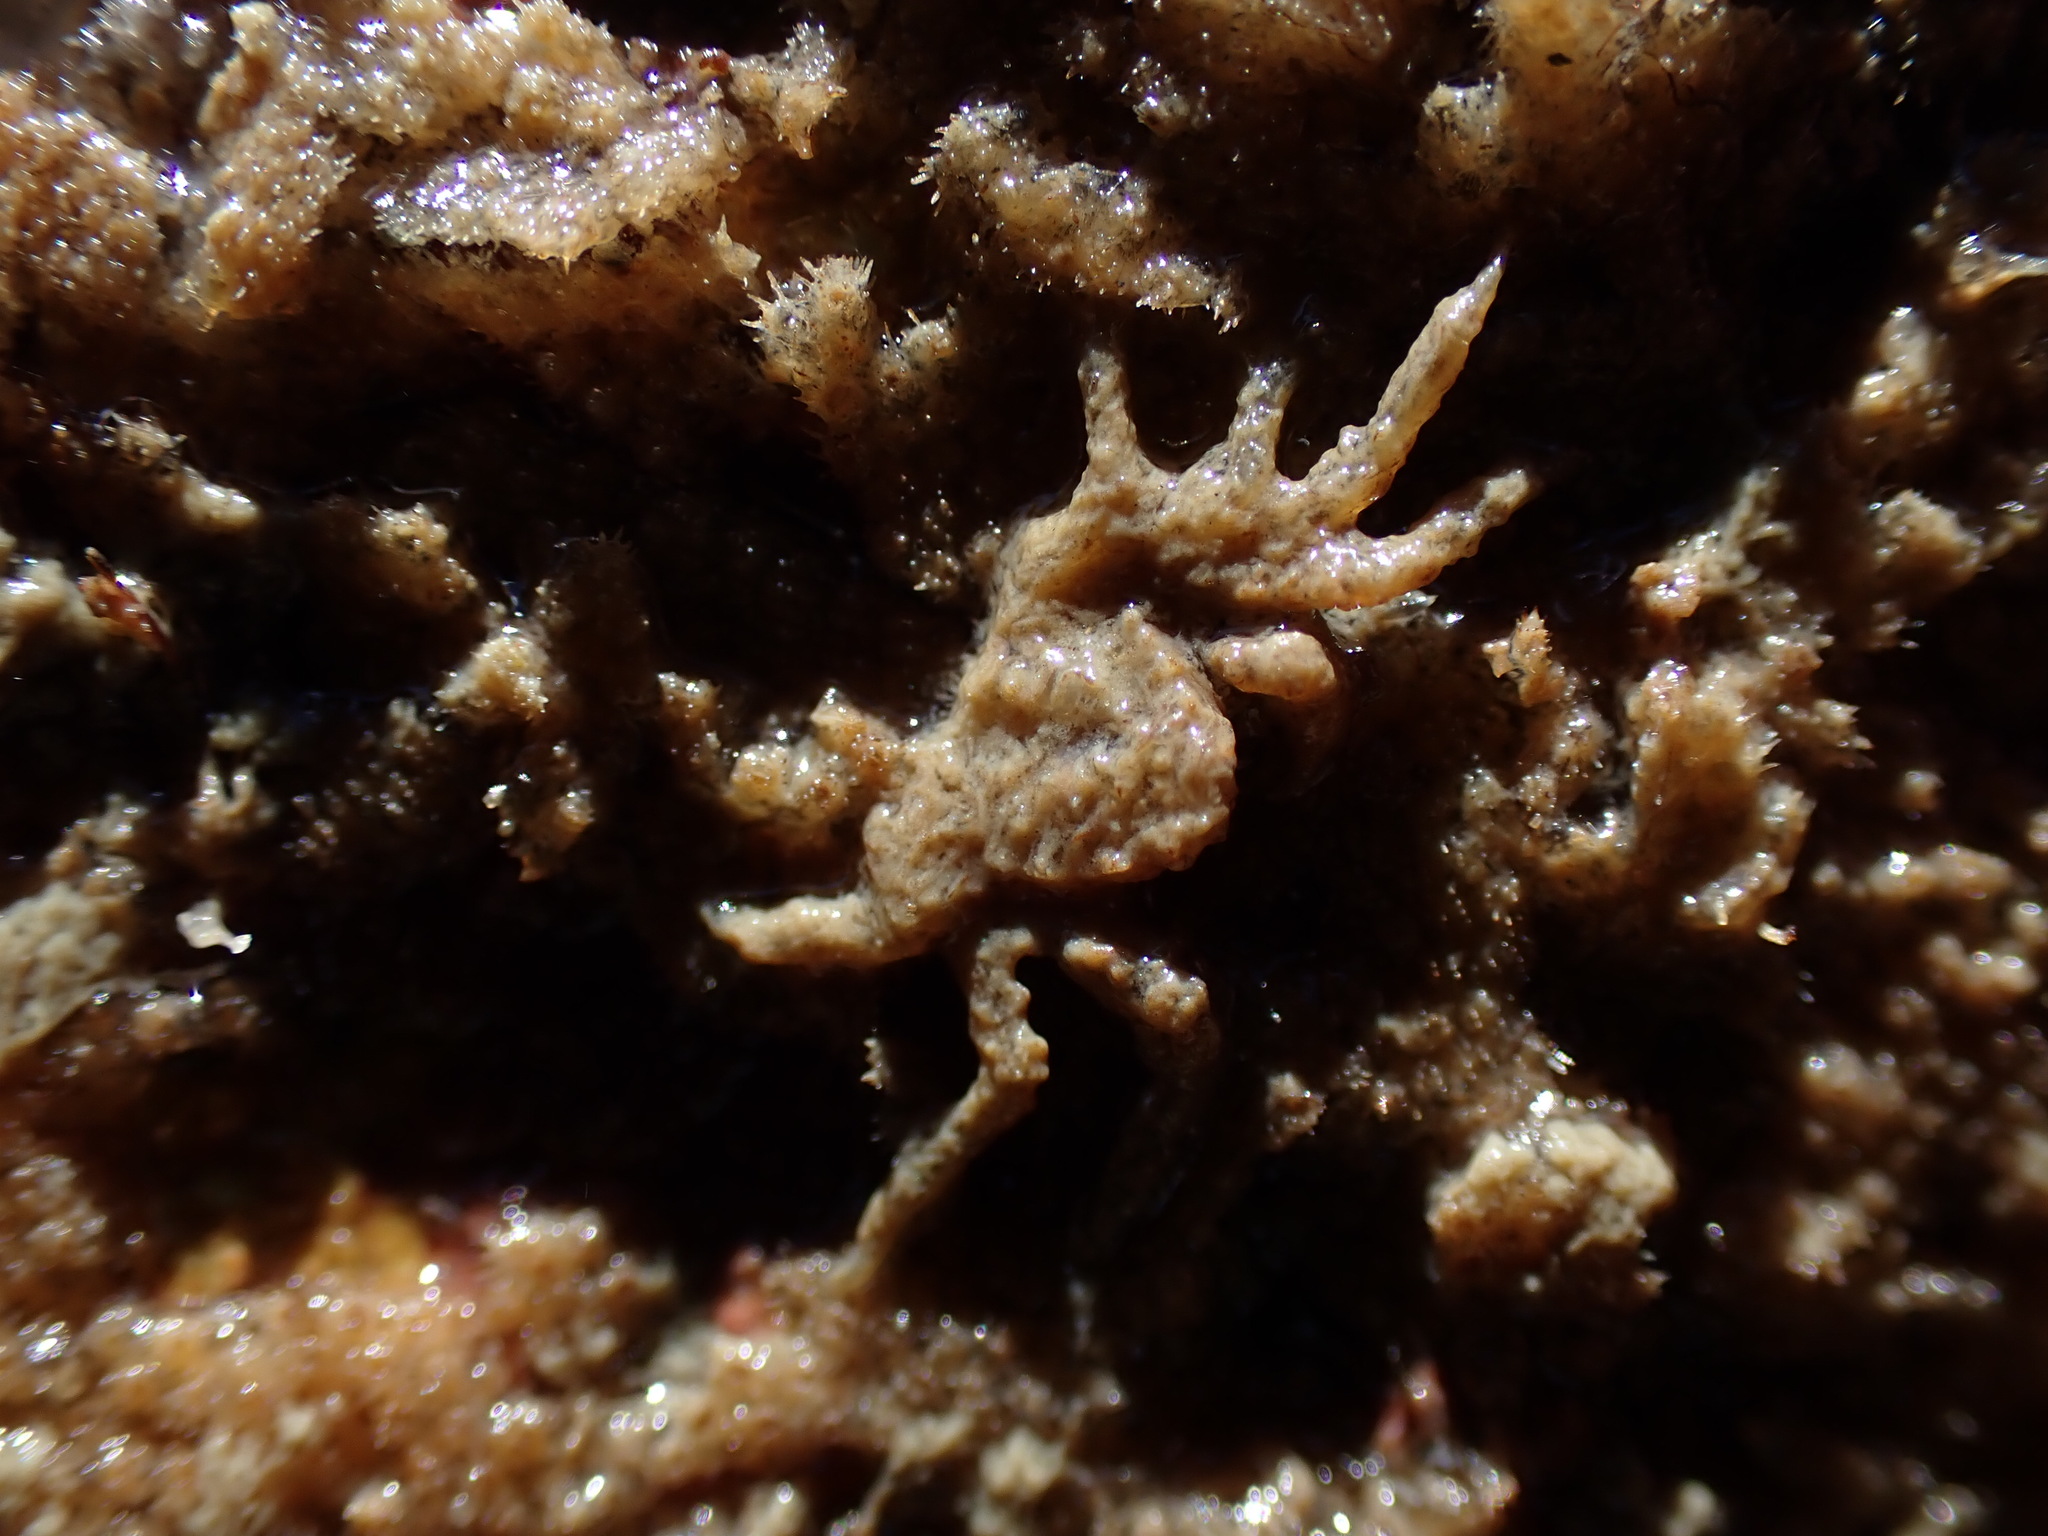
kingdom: Animalia
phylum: Arthropoda
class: Malacostraca
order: Decapoda
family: Hymenosomatidae
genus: Neohymenicus
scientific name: Neohymenicus pubescens
